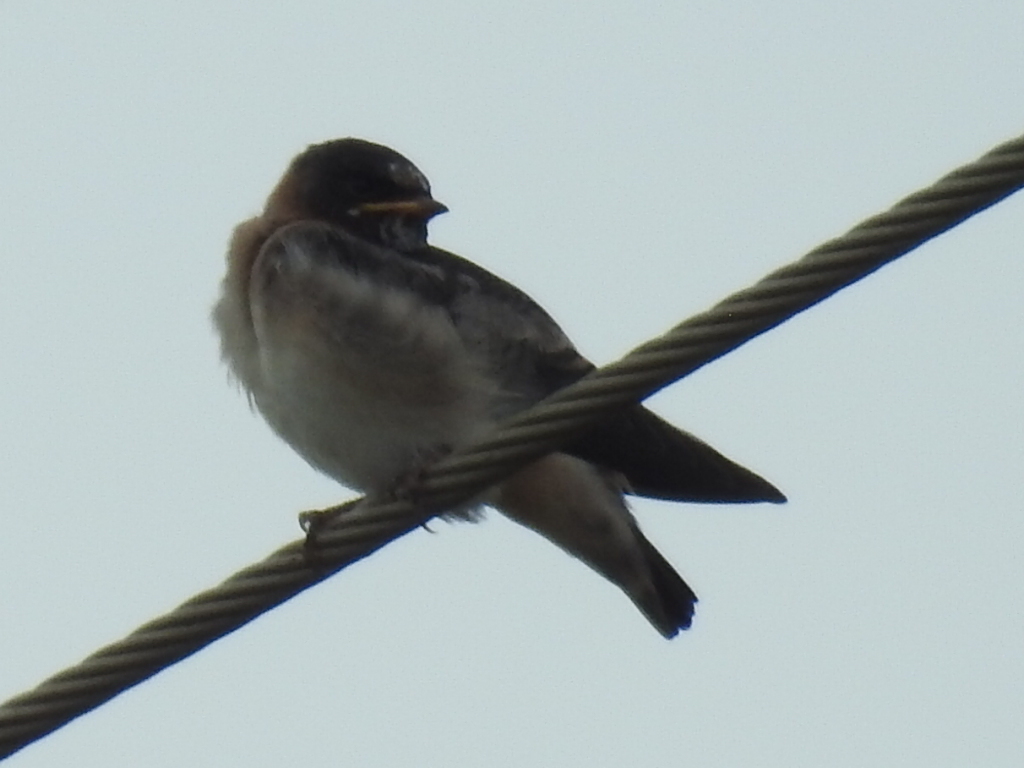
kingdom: Animalia
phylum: Chordata
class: Aves
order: Passeriformes
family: Hirundinidae
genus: Petrochelidon
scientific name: Petrochelidon pyrrhonota
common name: American cliff swallow
